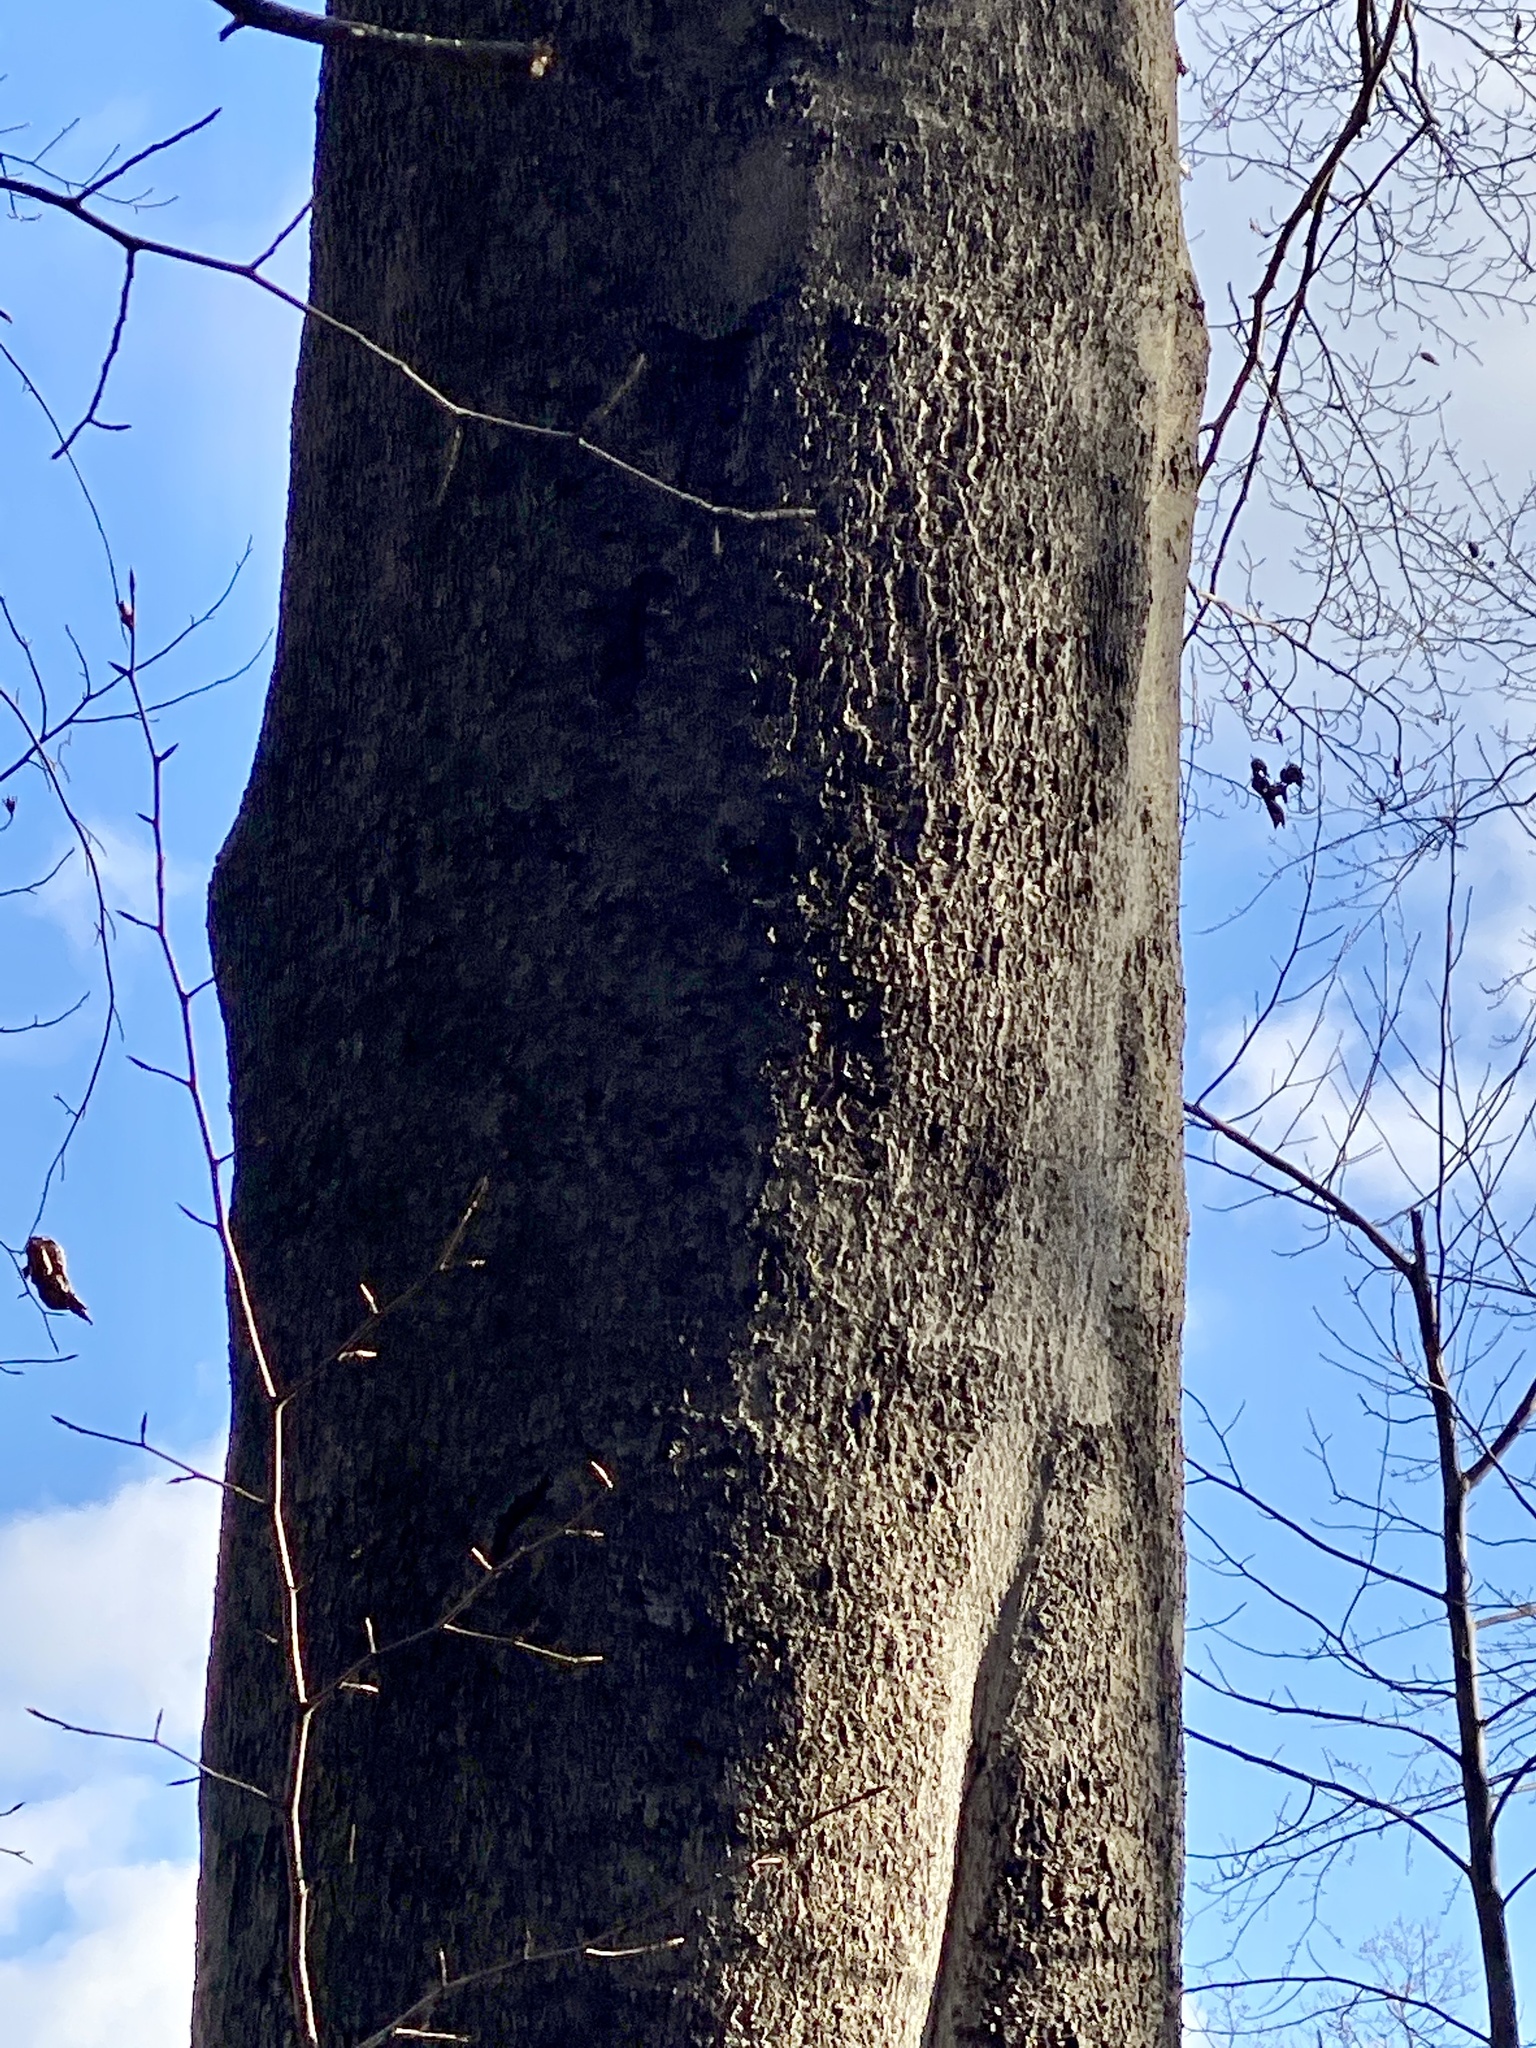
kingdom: Plantae
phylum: Tracheophyta
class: Magnoliopsida
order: Fagales
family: Fagaceae
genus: Fagus
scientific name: Fagus grandifolia
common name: American beech
